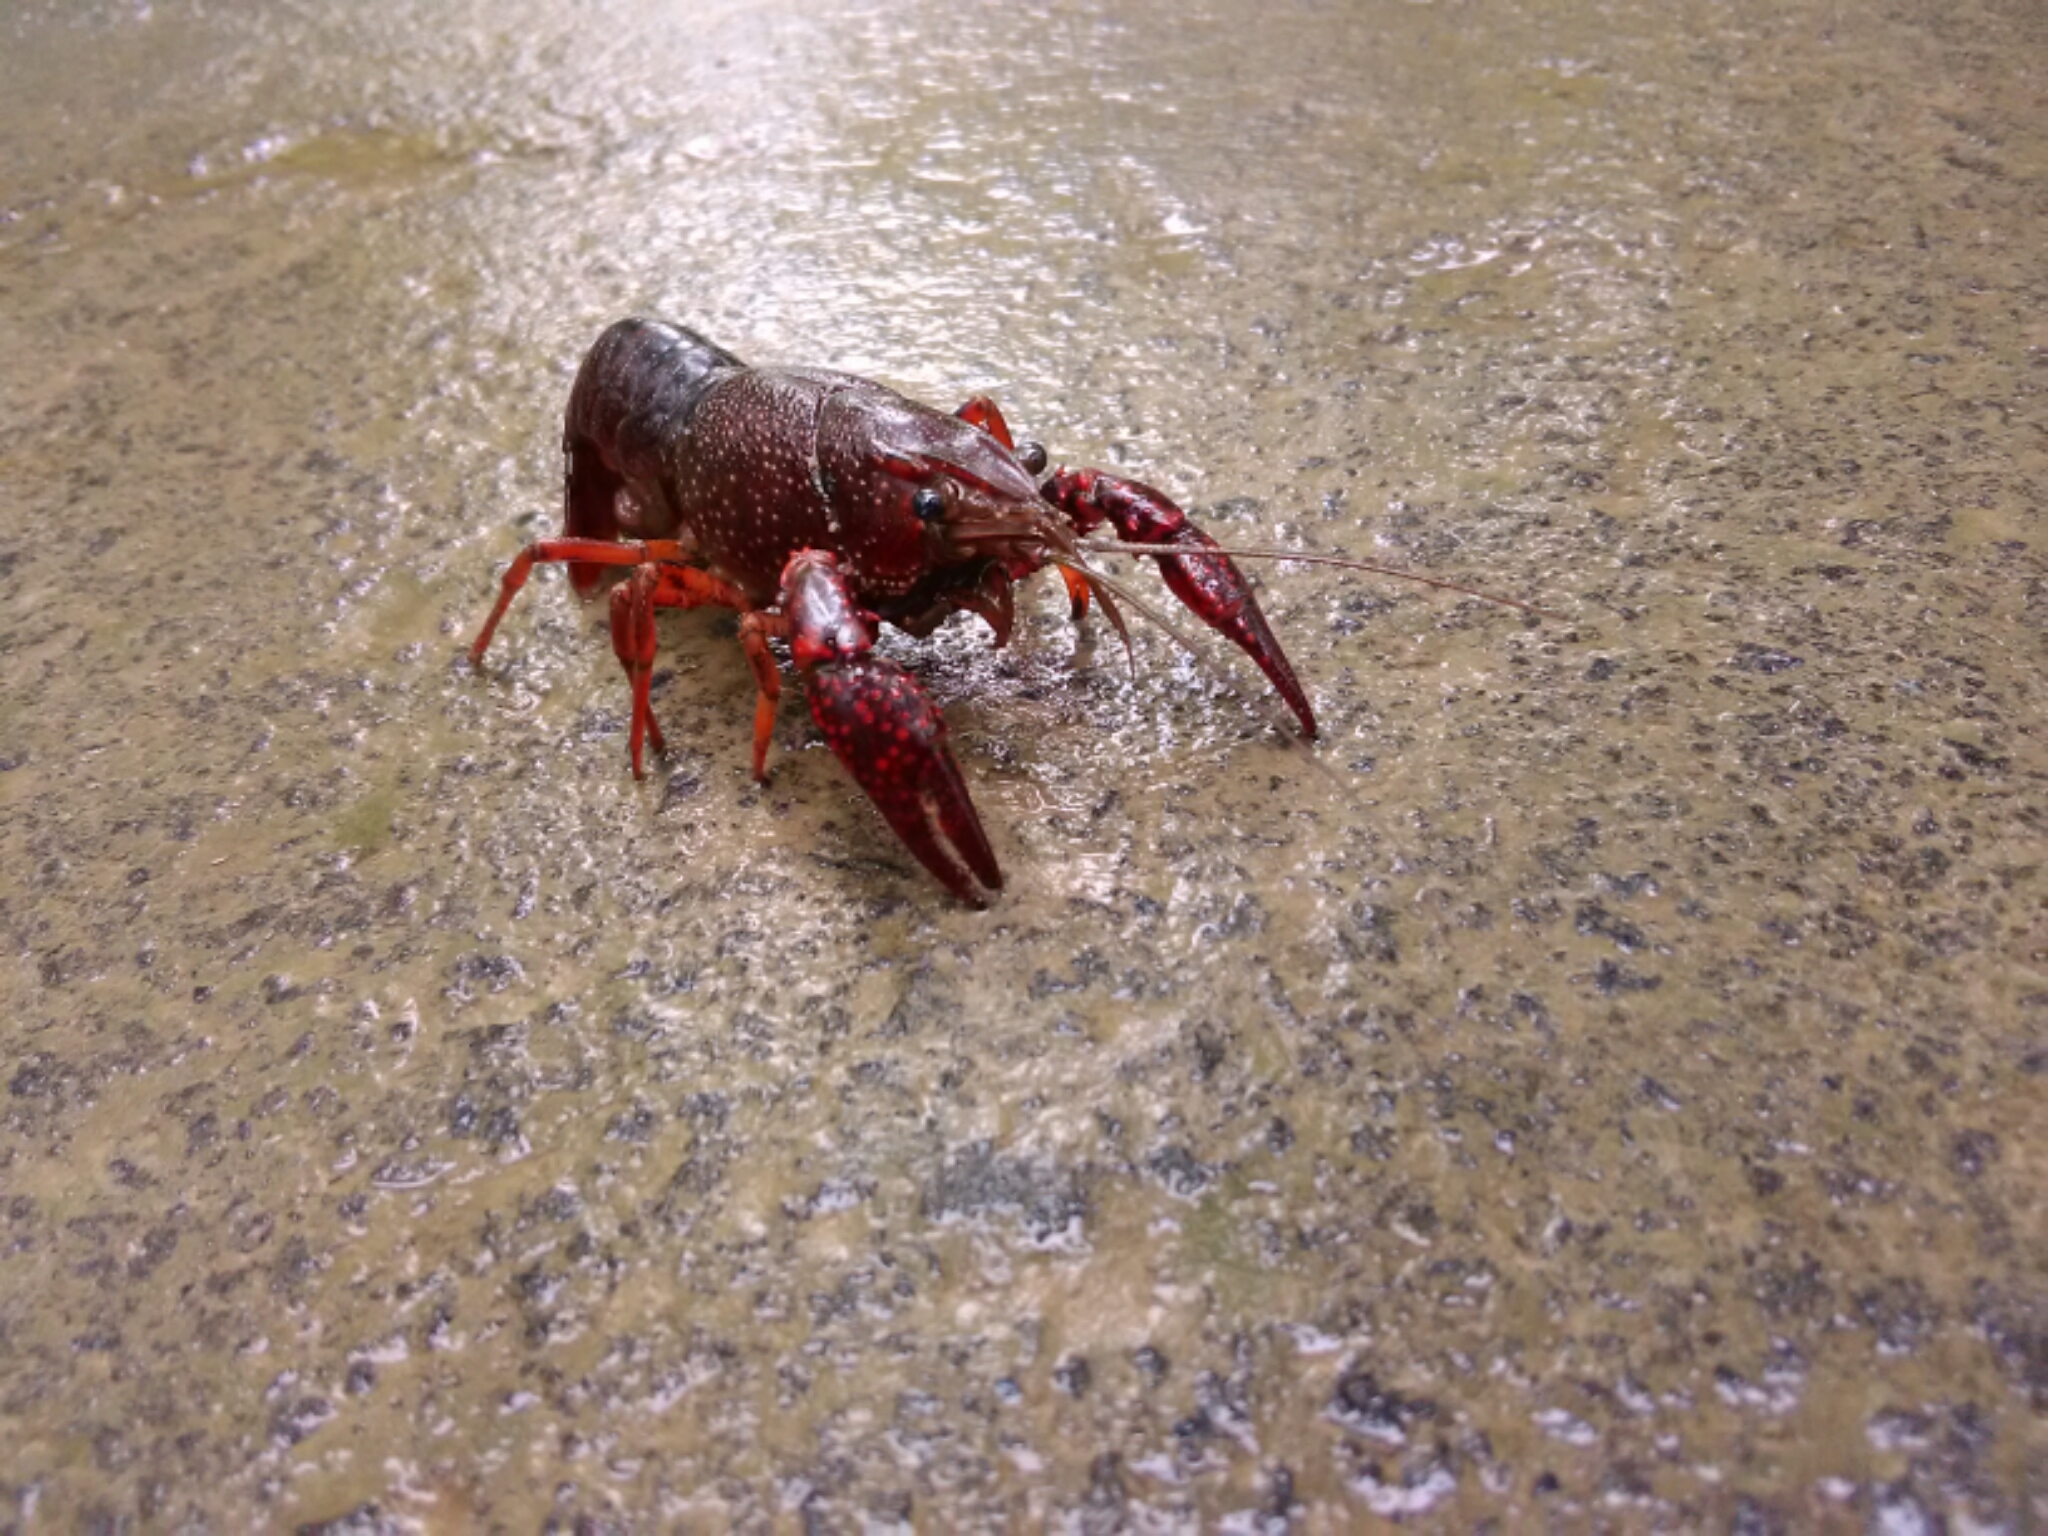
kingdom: Animalia
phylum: Arthropoda
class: Malacostraca
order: Decapoda
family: Cambaridae
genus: Procambarus
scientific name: Procambarus clarkii
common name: Red swamp crayfish
